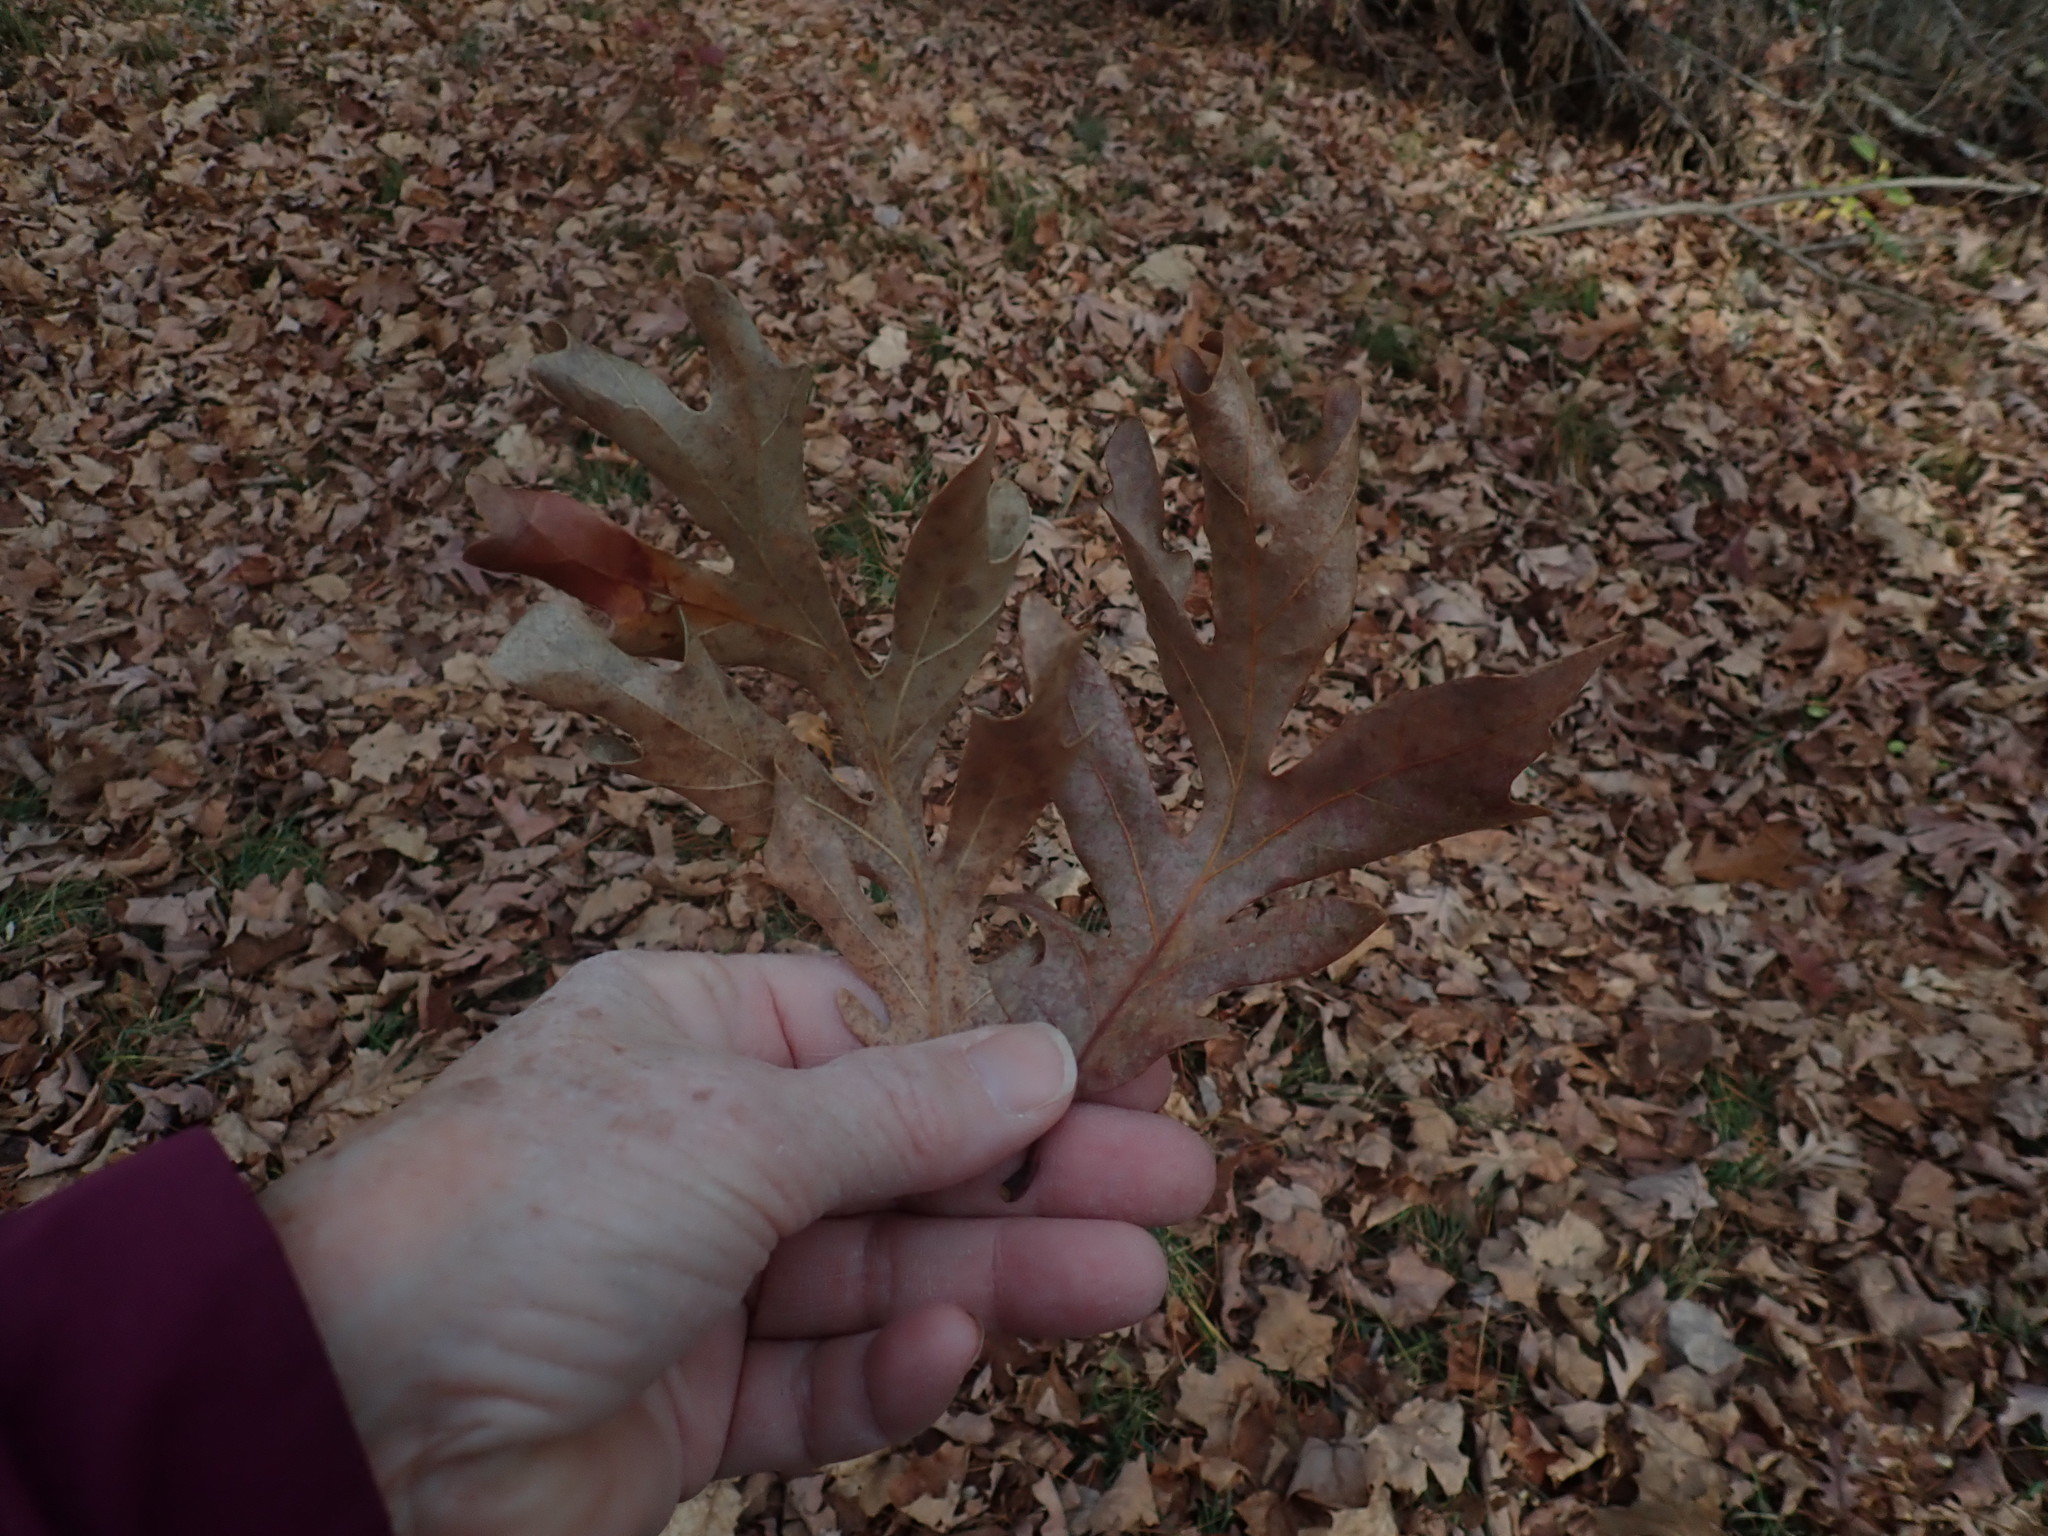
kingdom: Plantae
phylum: Tracheophyta
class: Magnoliopsida
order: Fagales
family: Fagaceae
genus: Quercus
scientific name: Quercus alba
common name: White oak
